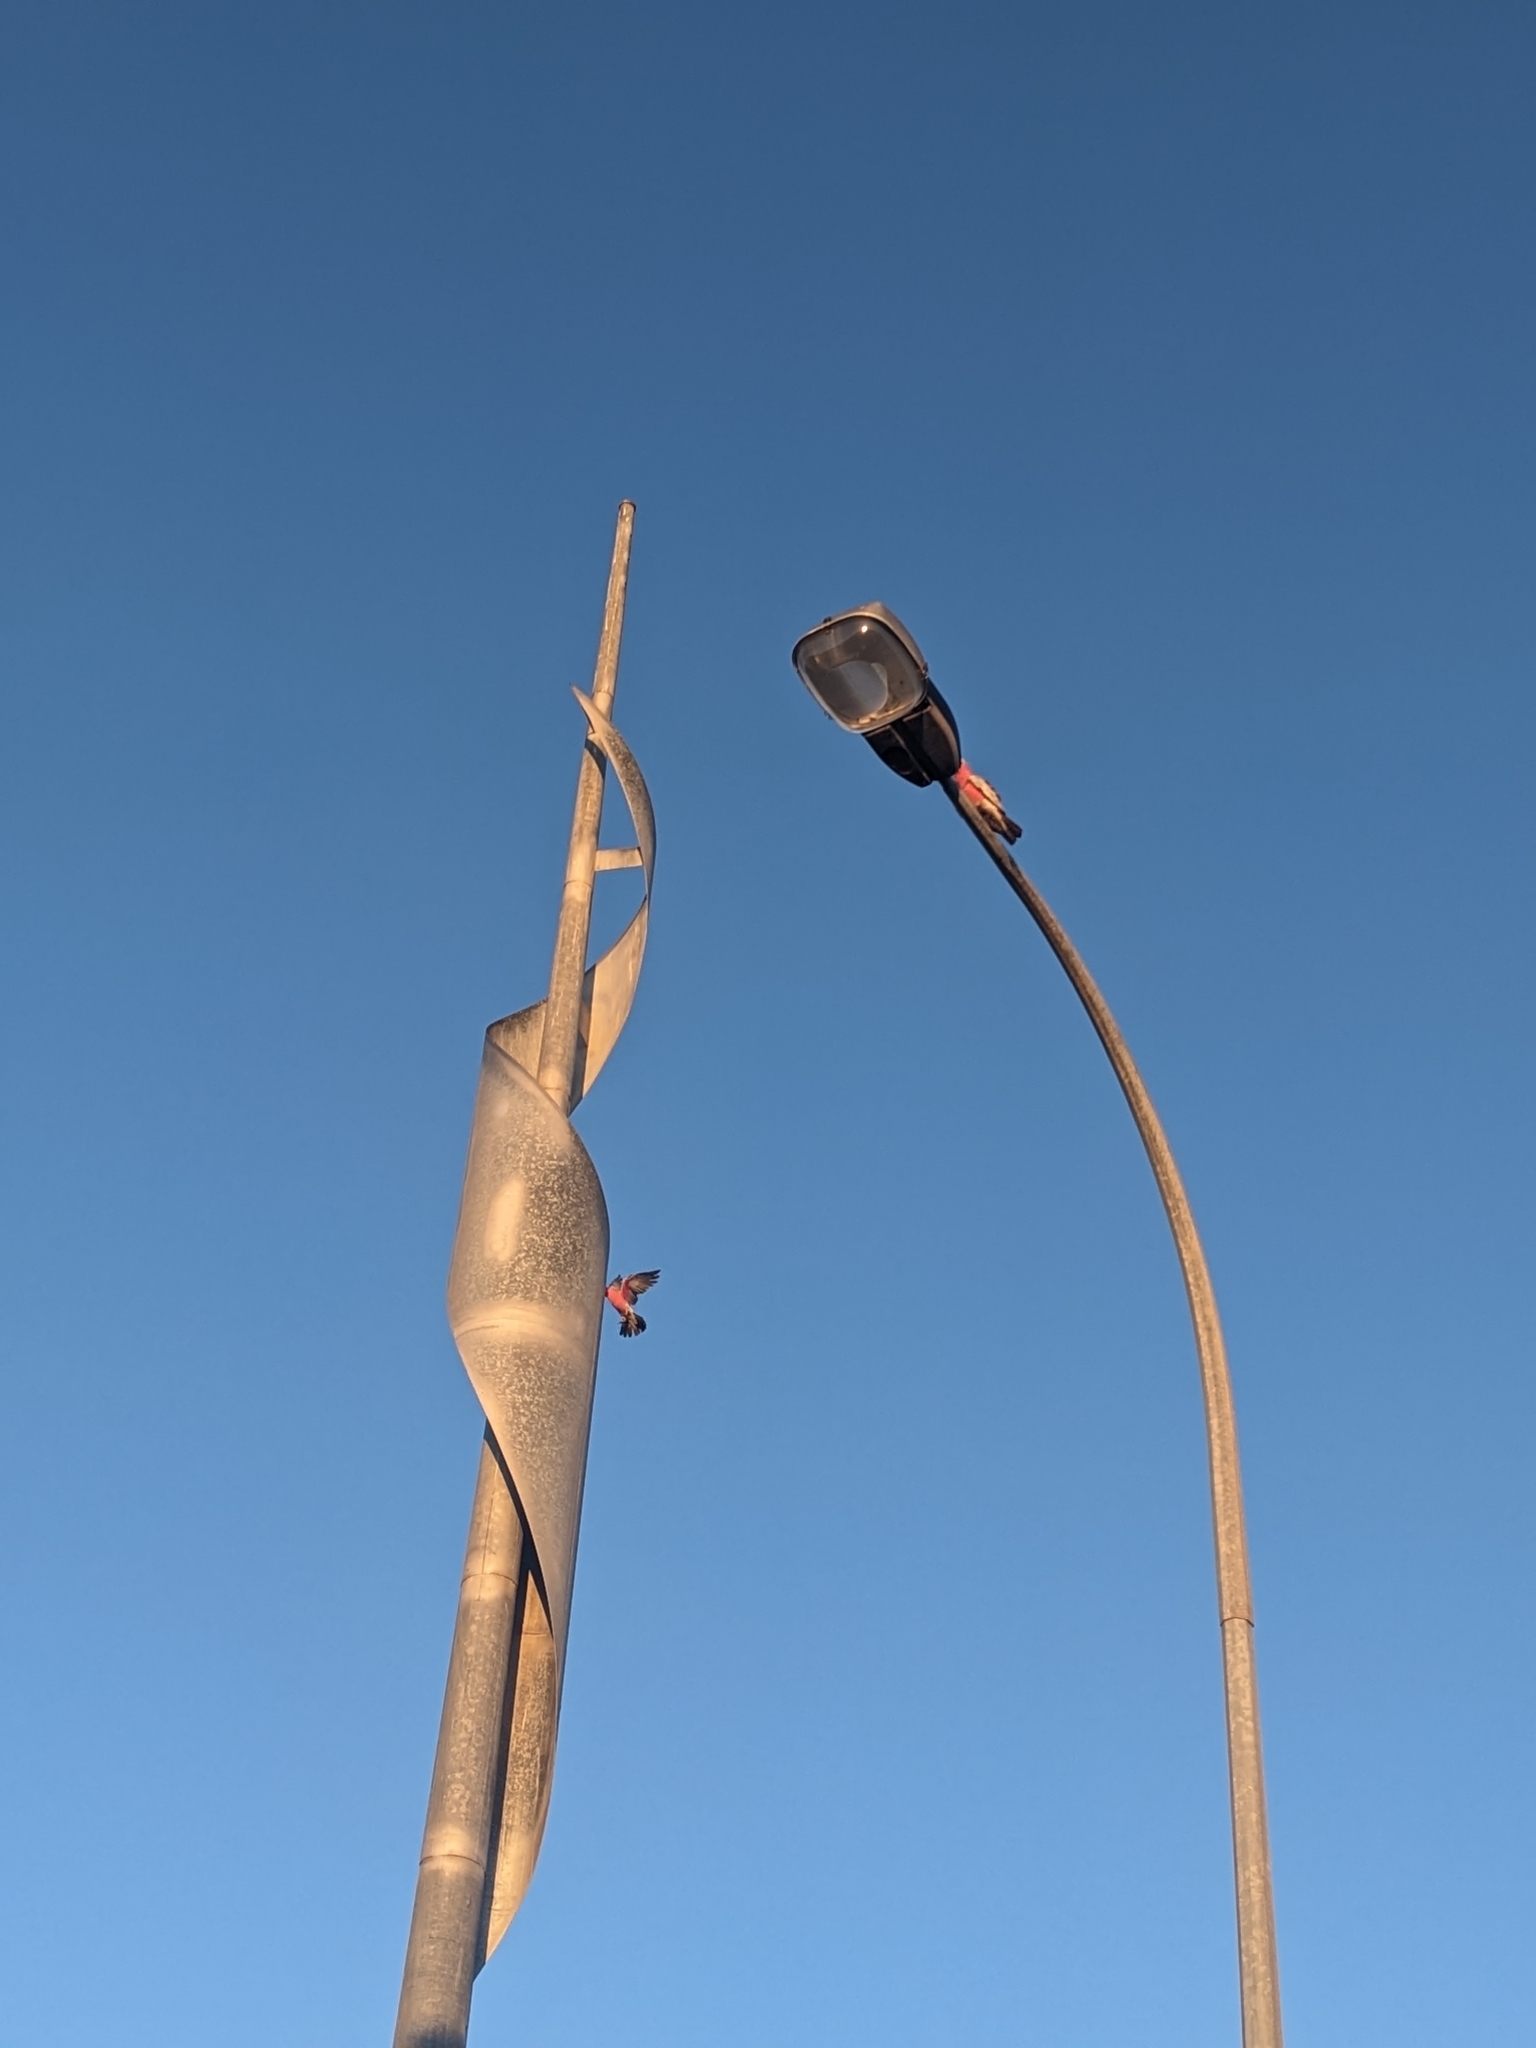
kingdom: Animalia
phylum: Chordata
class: Aves
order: Psittaciformes
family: Psittacidae
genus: Eolophus
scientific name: Eolophus roseicapilla
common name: Galah
